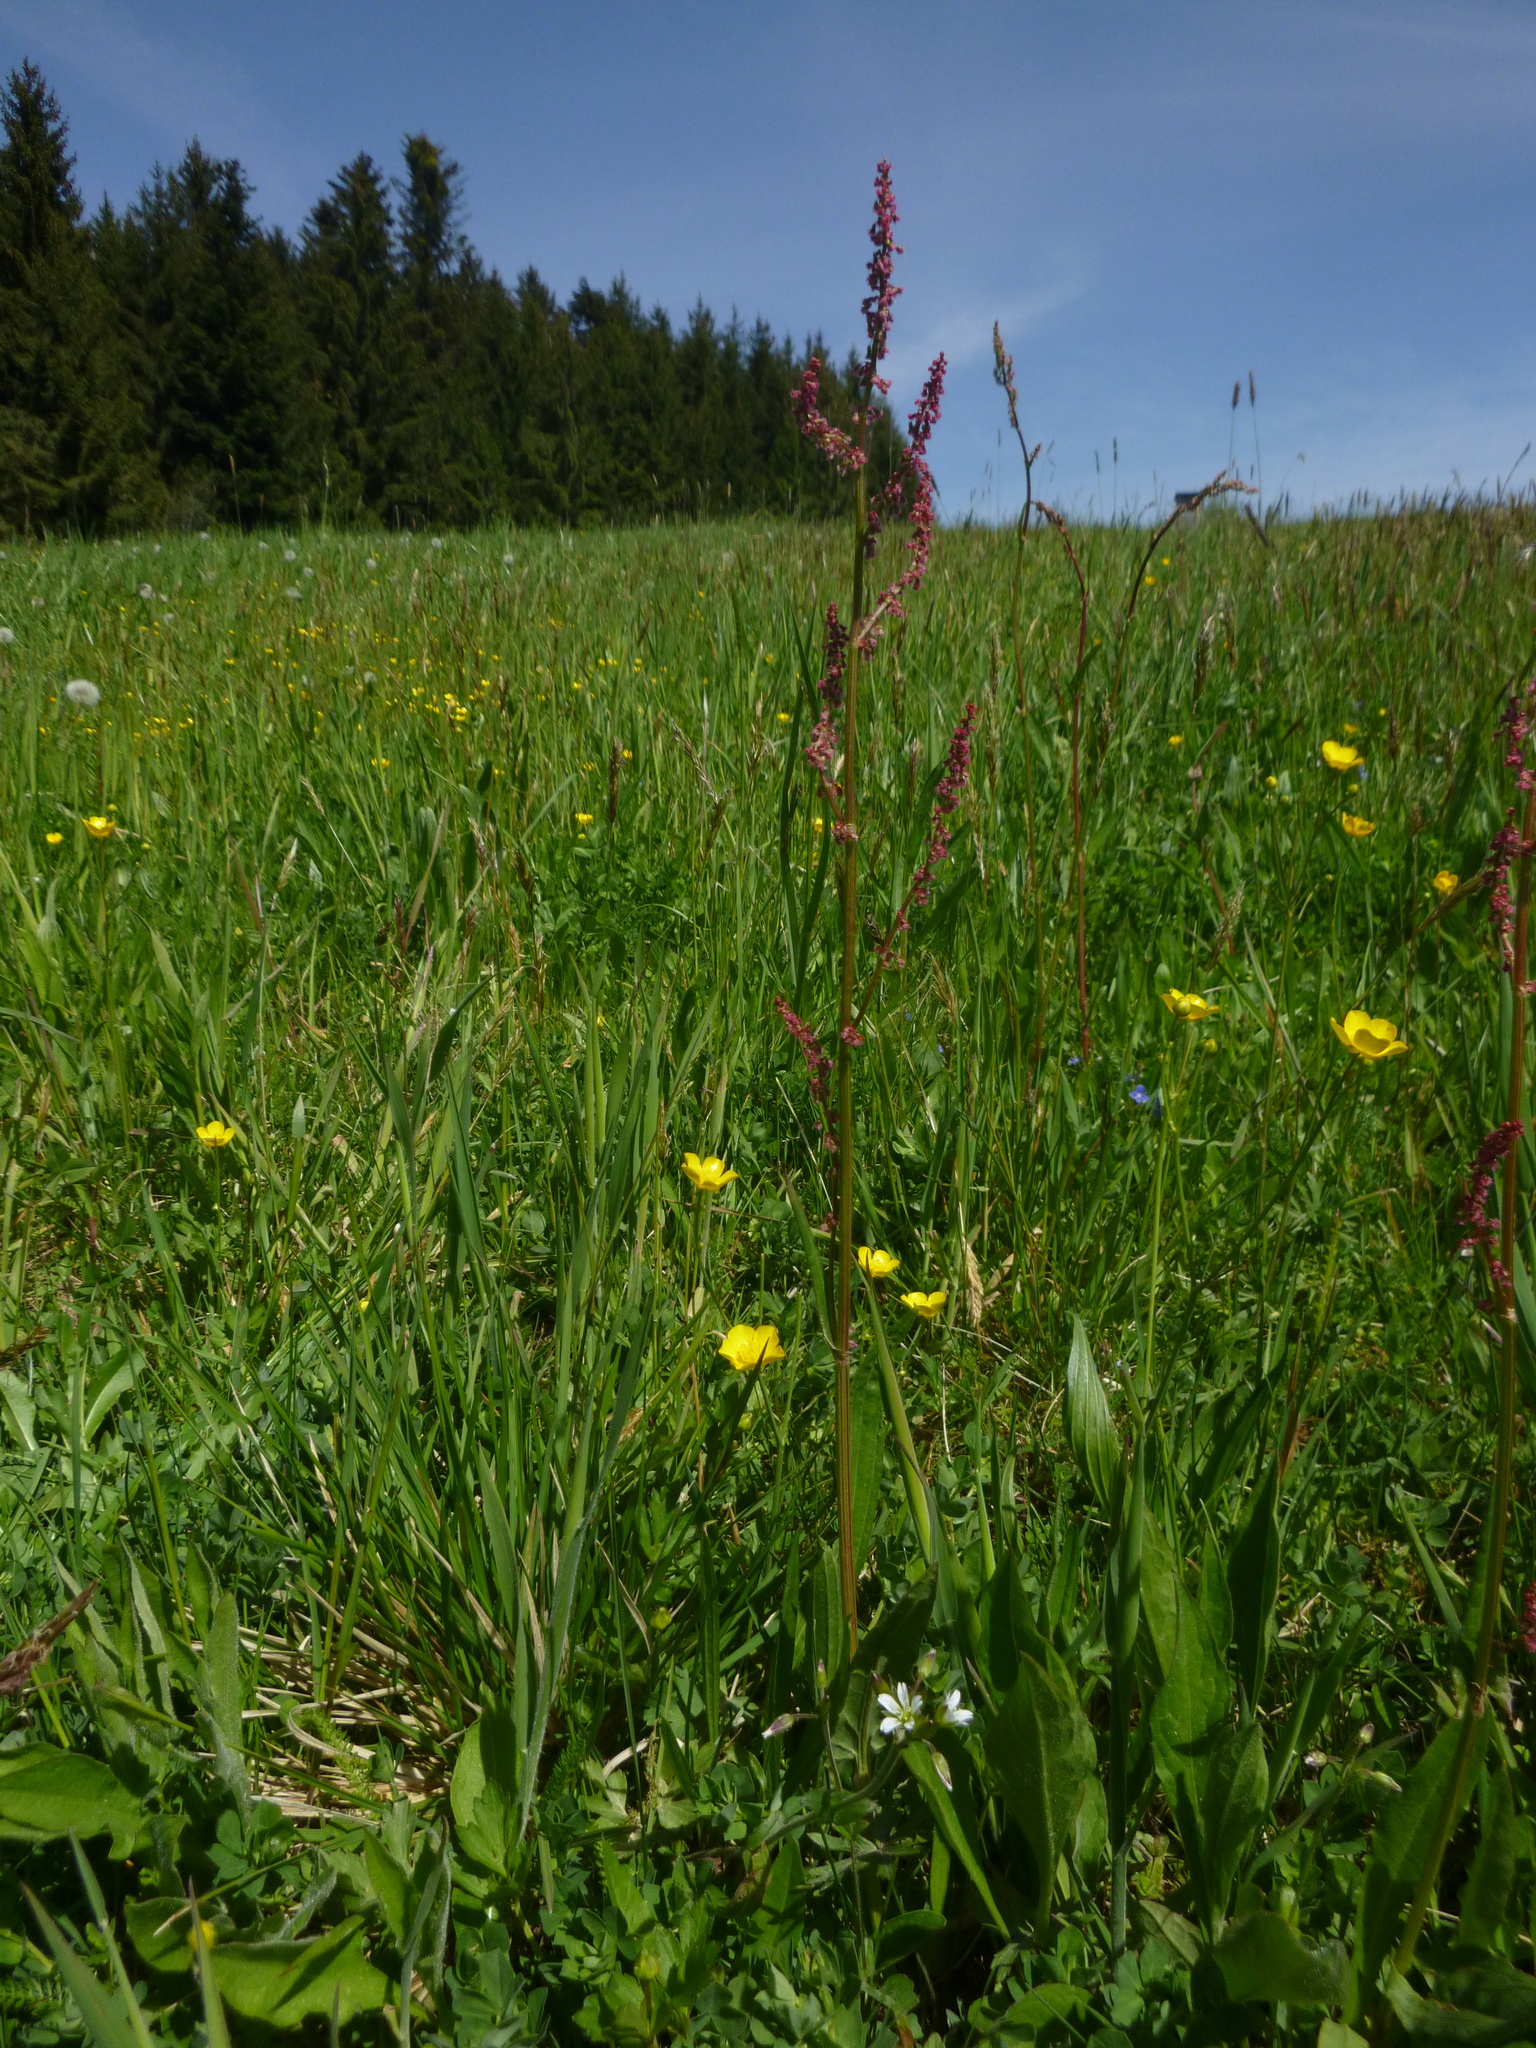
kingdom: Plantae
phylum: Tracheophyta
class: Magnoliopsida
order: Caryophyllales
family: Polygonaceae
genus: Rumex
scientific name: Rumex acetosa
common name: Garden sorrel
